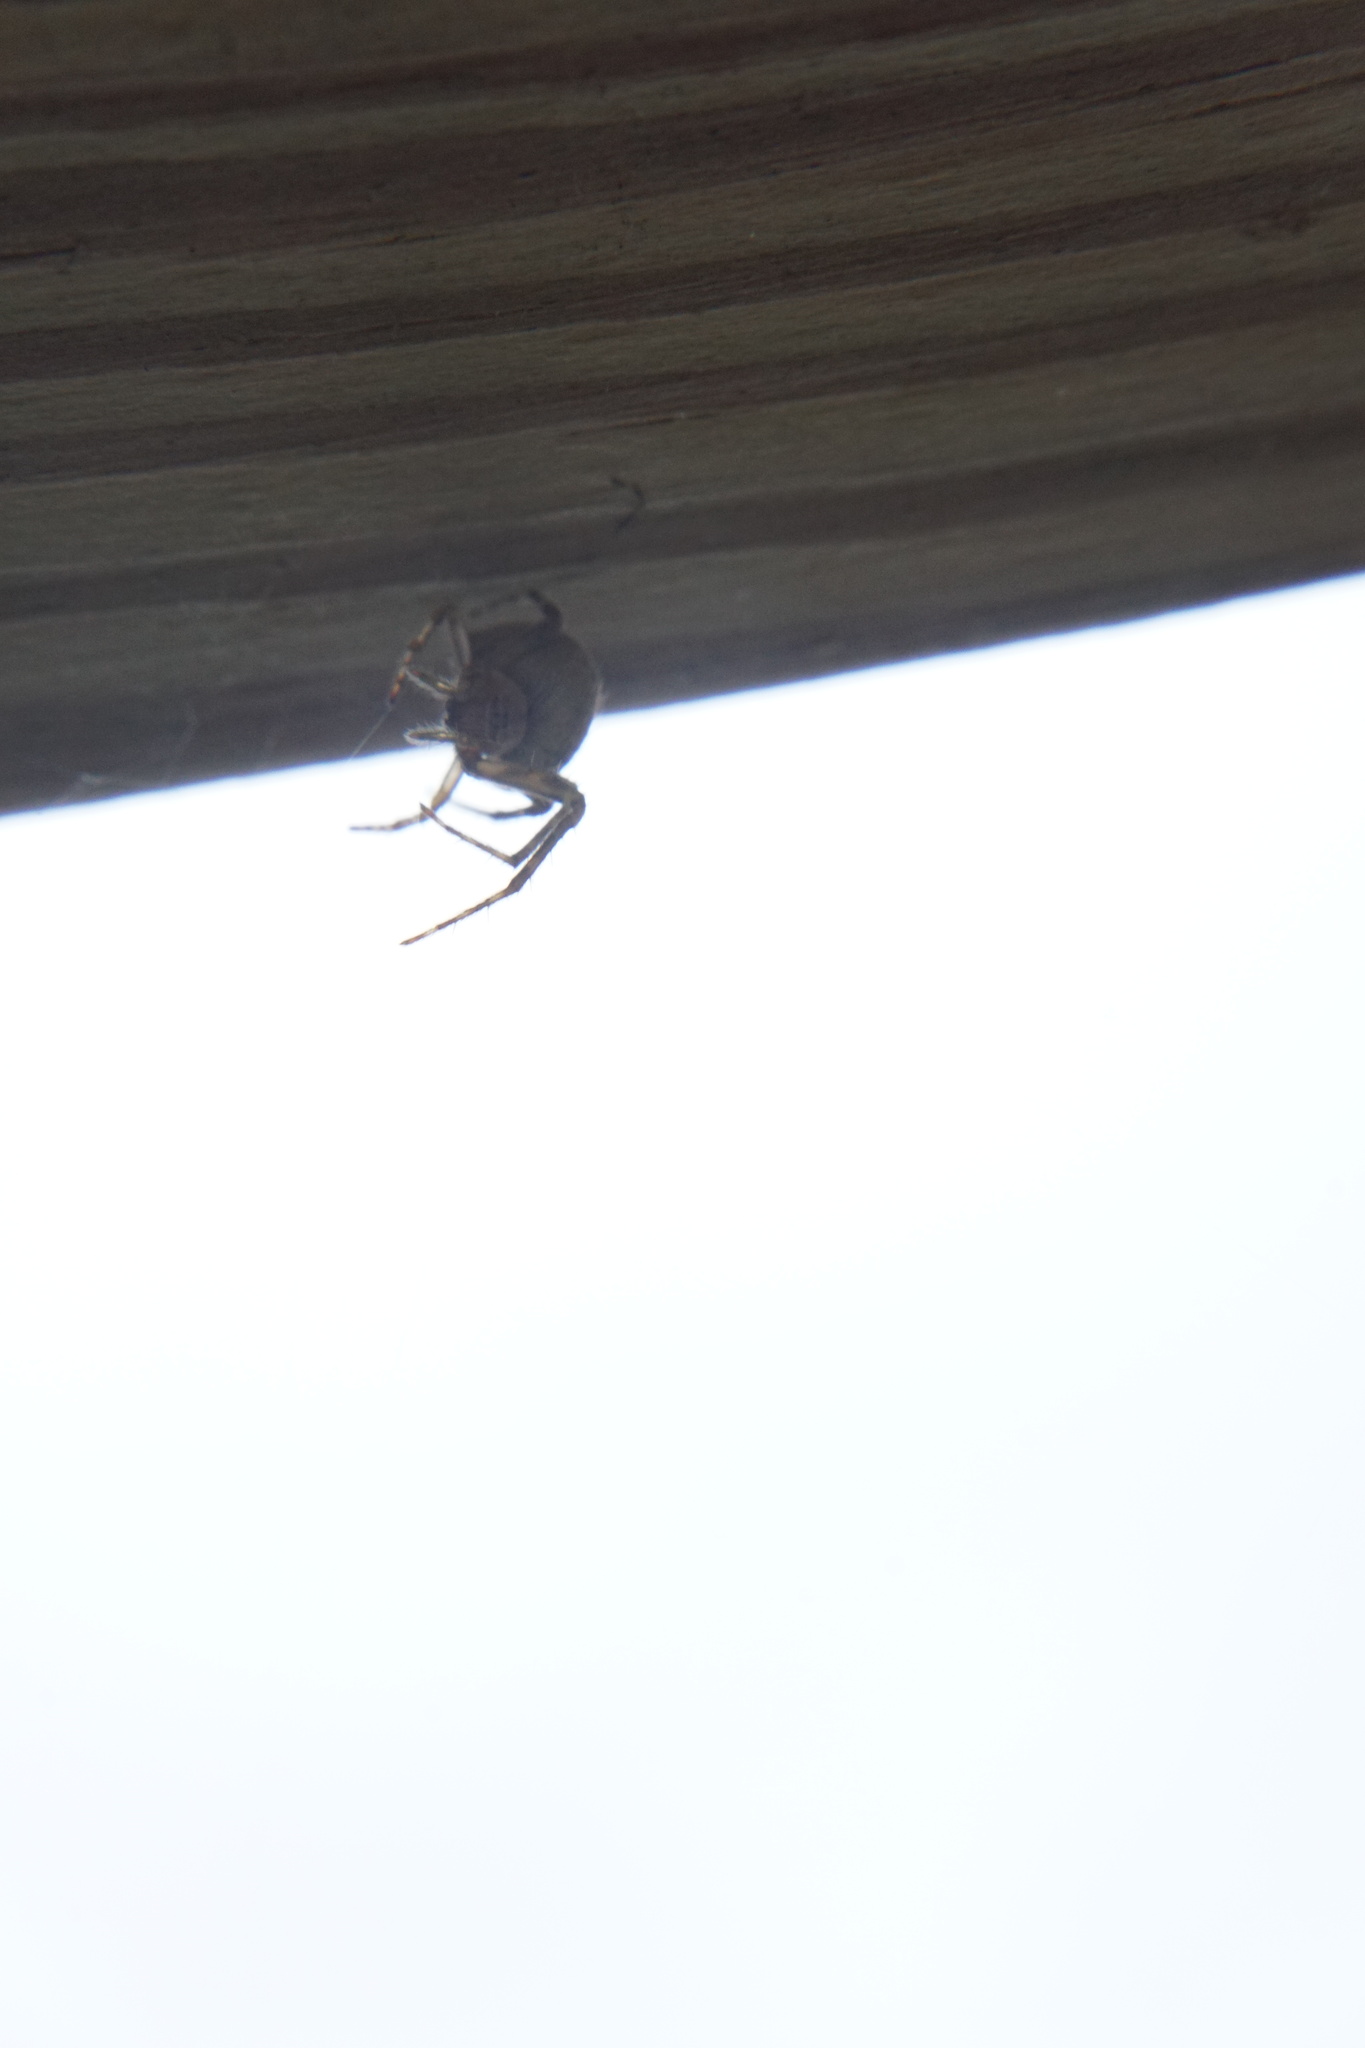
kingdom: Animalia
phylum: Arthropoda
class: Arachnida
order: Araneae
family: Araneidae
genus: Eustala
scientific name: Eustala
